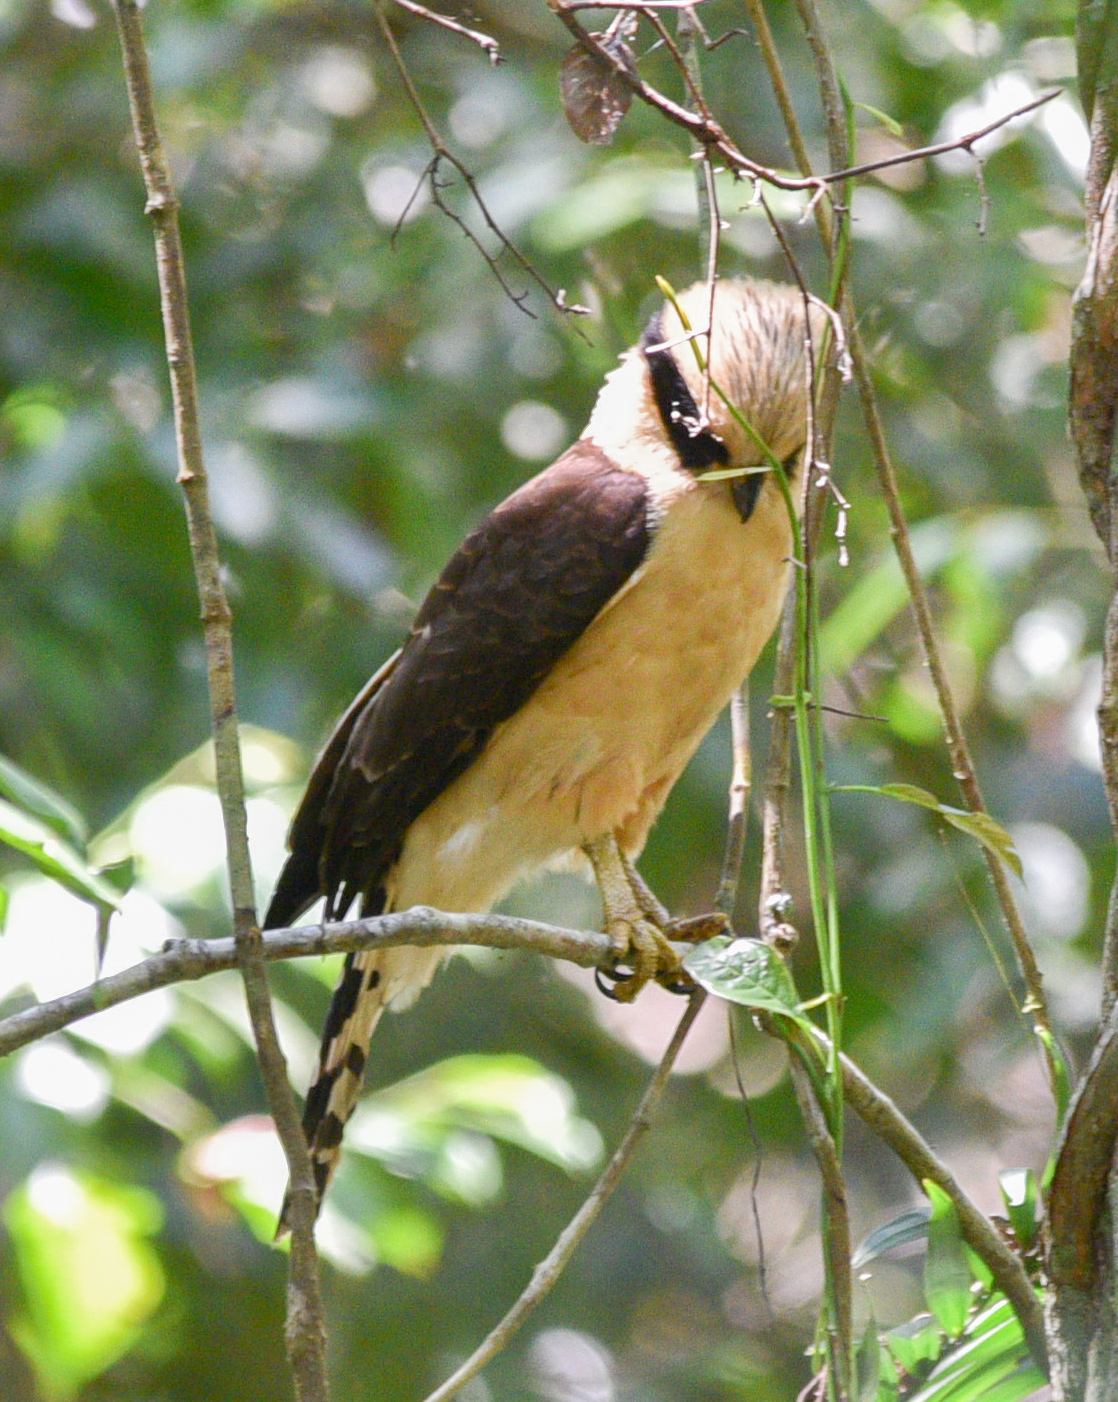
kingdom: Animalia
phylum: Chordata
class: Aves
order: Falconiformes
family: Falconidae
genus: Herpetotheres
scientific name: Herpetotheres cachinnans
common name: Laughing falcon
